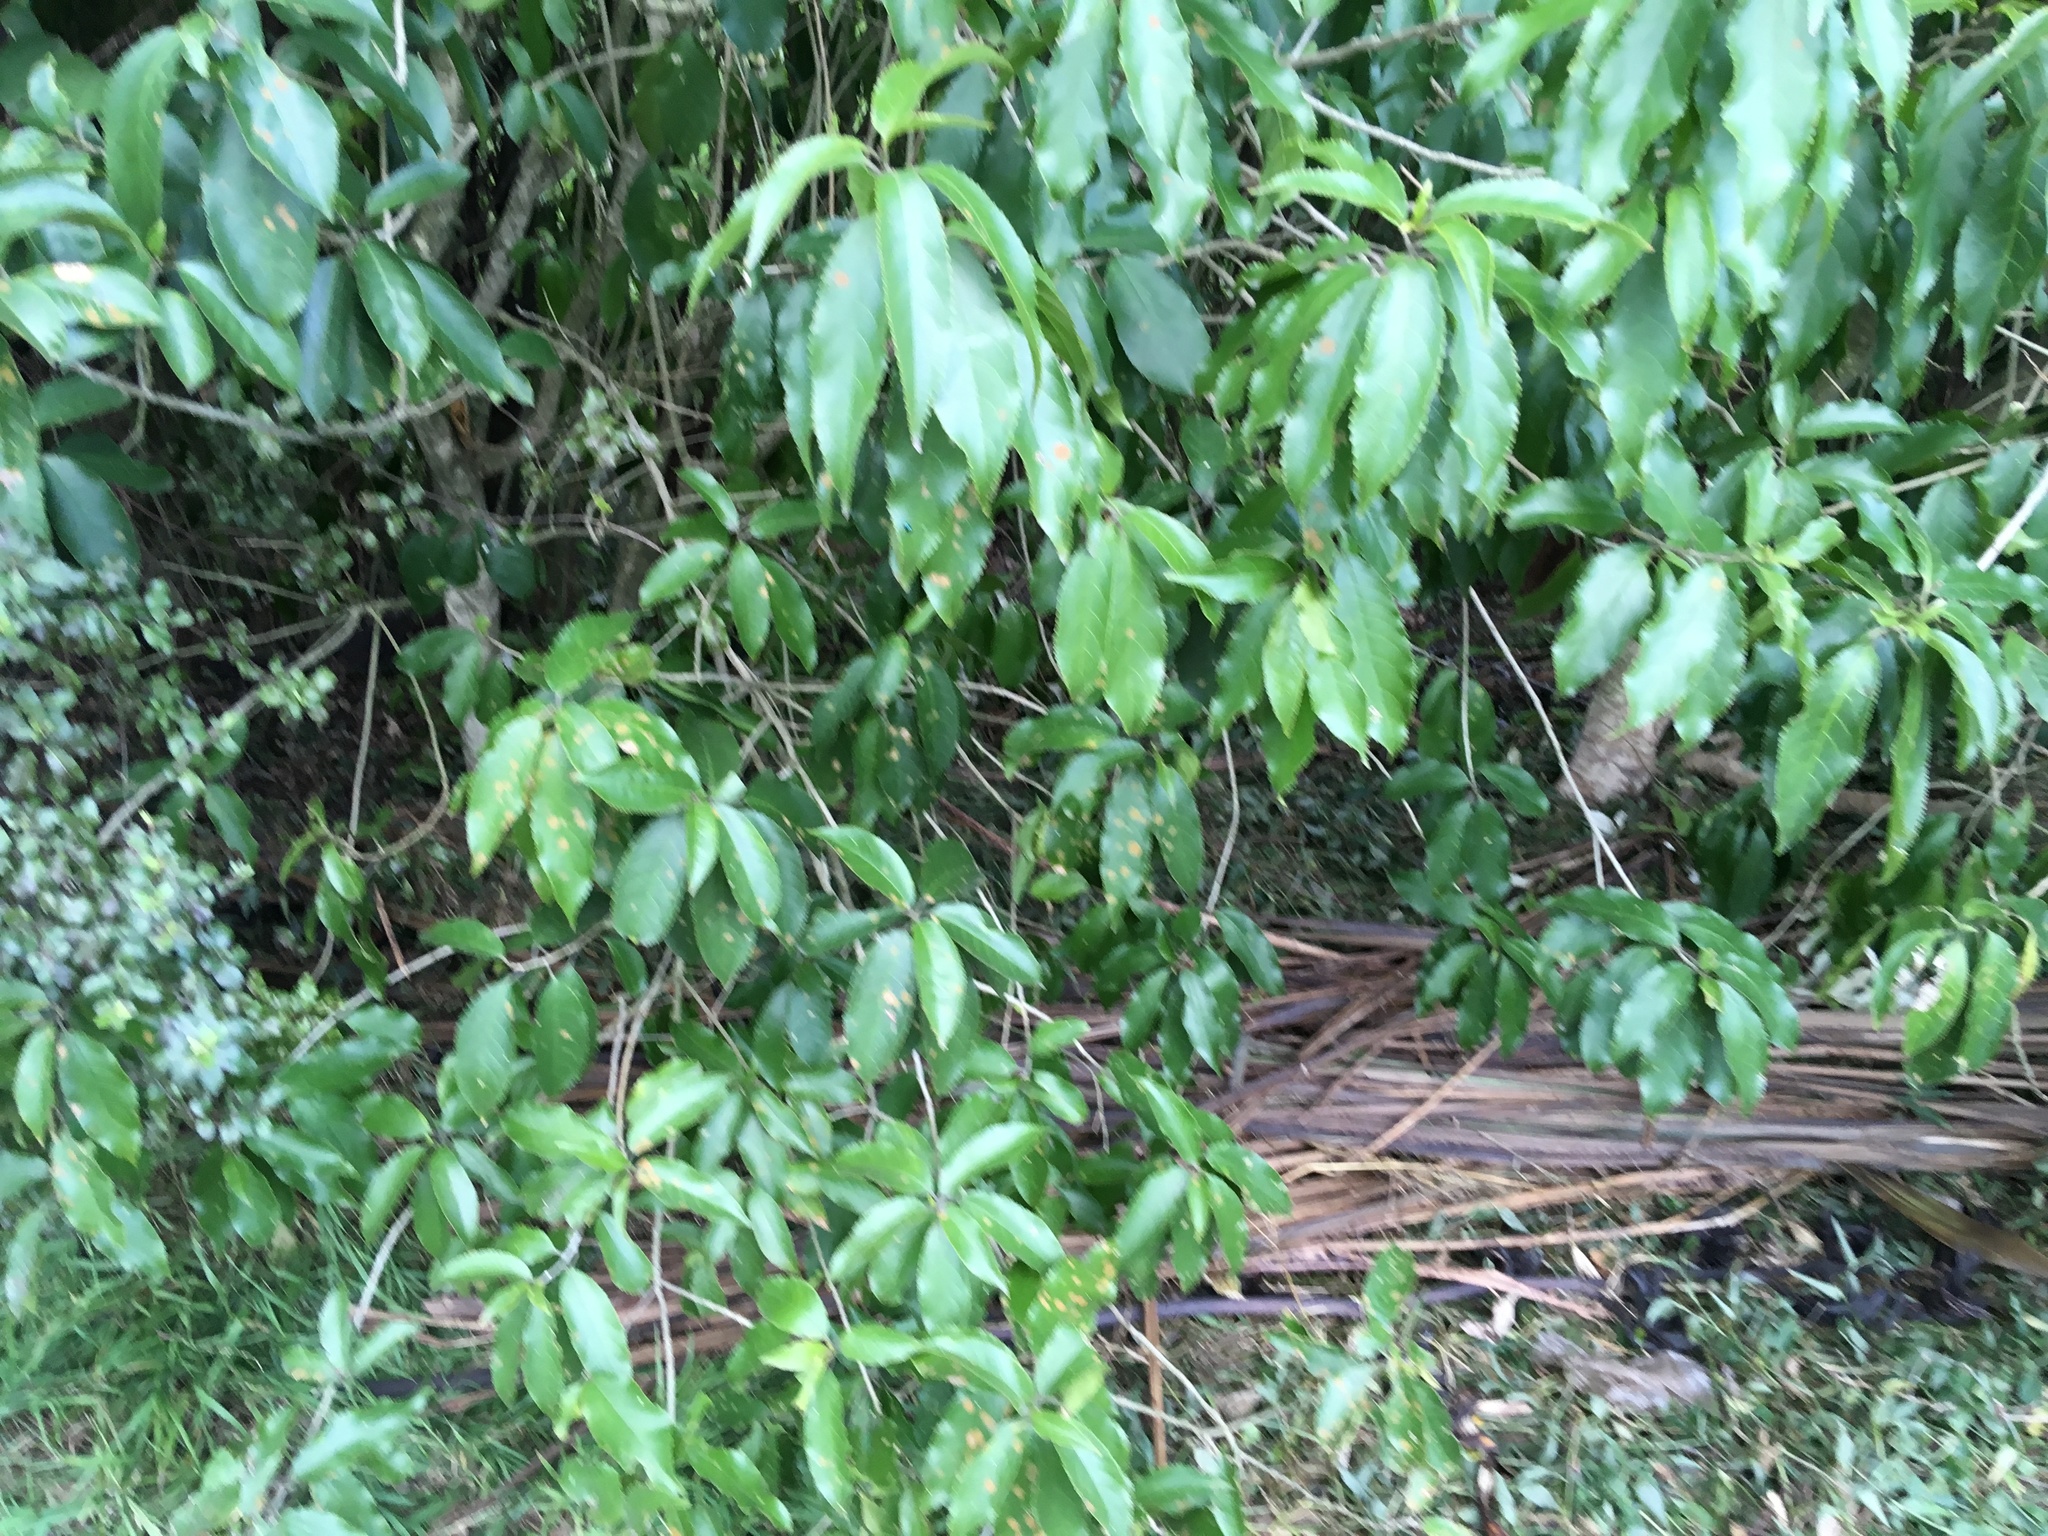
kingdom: Plantae
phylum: Tracheophyta
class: Magnoliopsida
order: Malpighiales
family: Violaceae
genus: Melicytus
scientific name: Melicytus ramiflorus
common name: Mahoe
